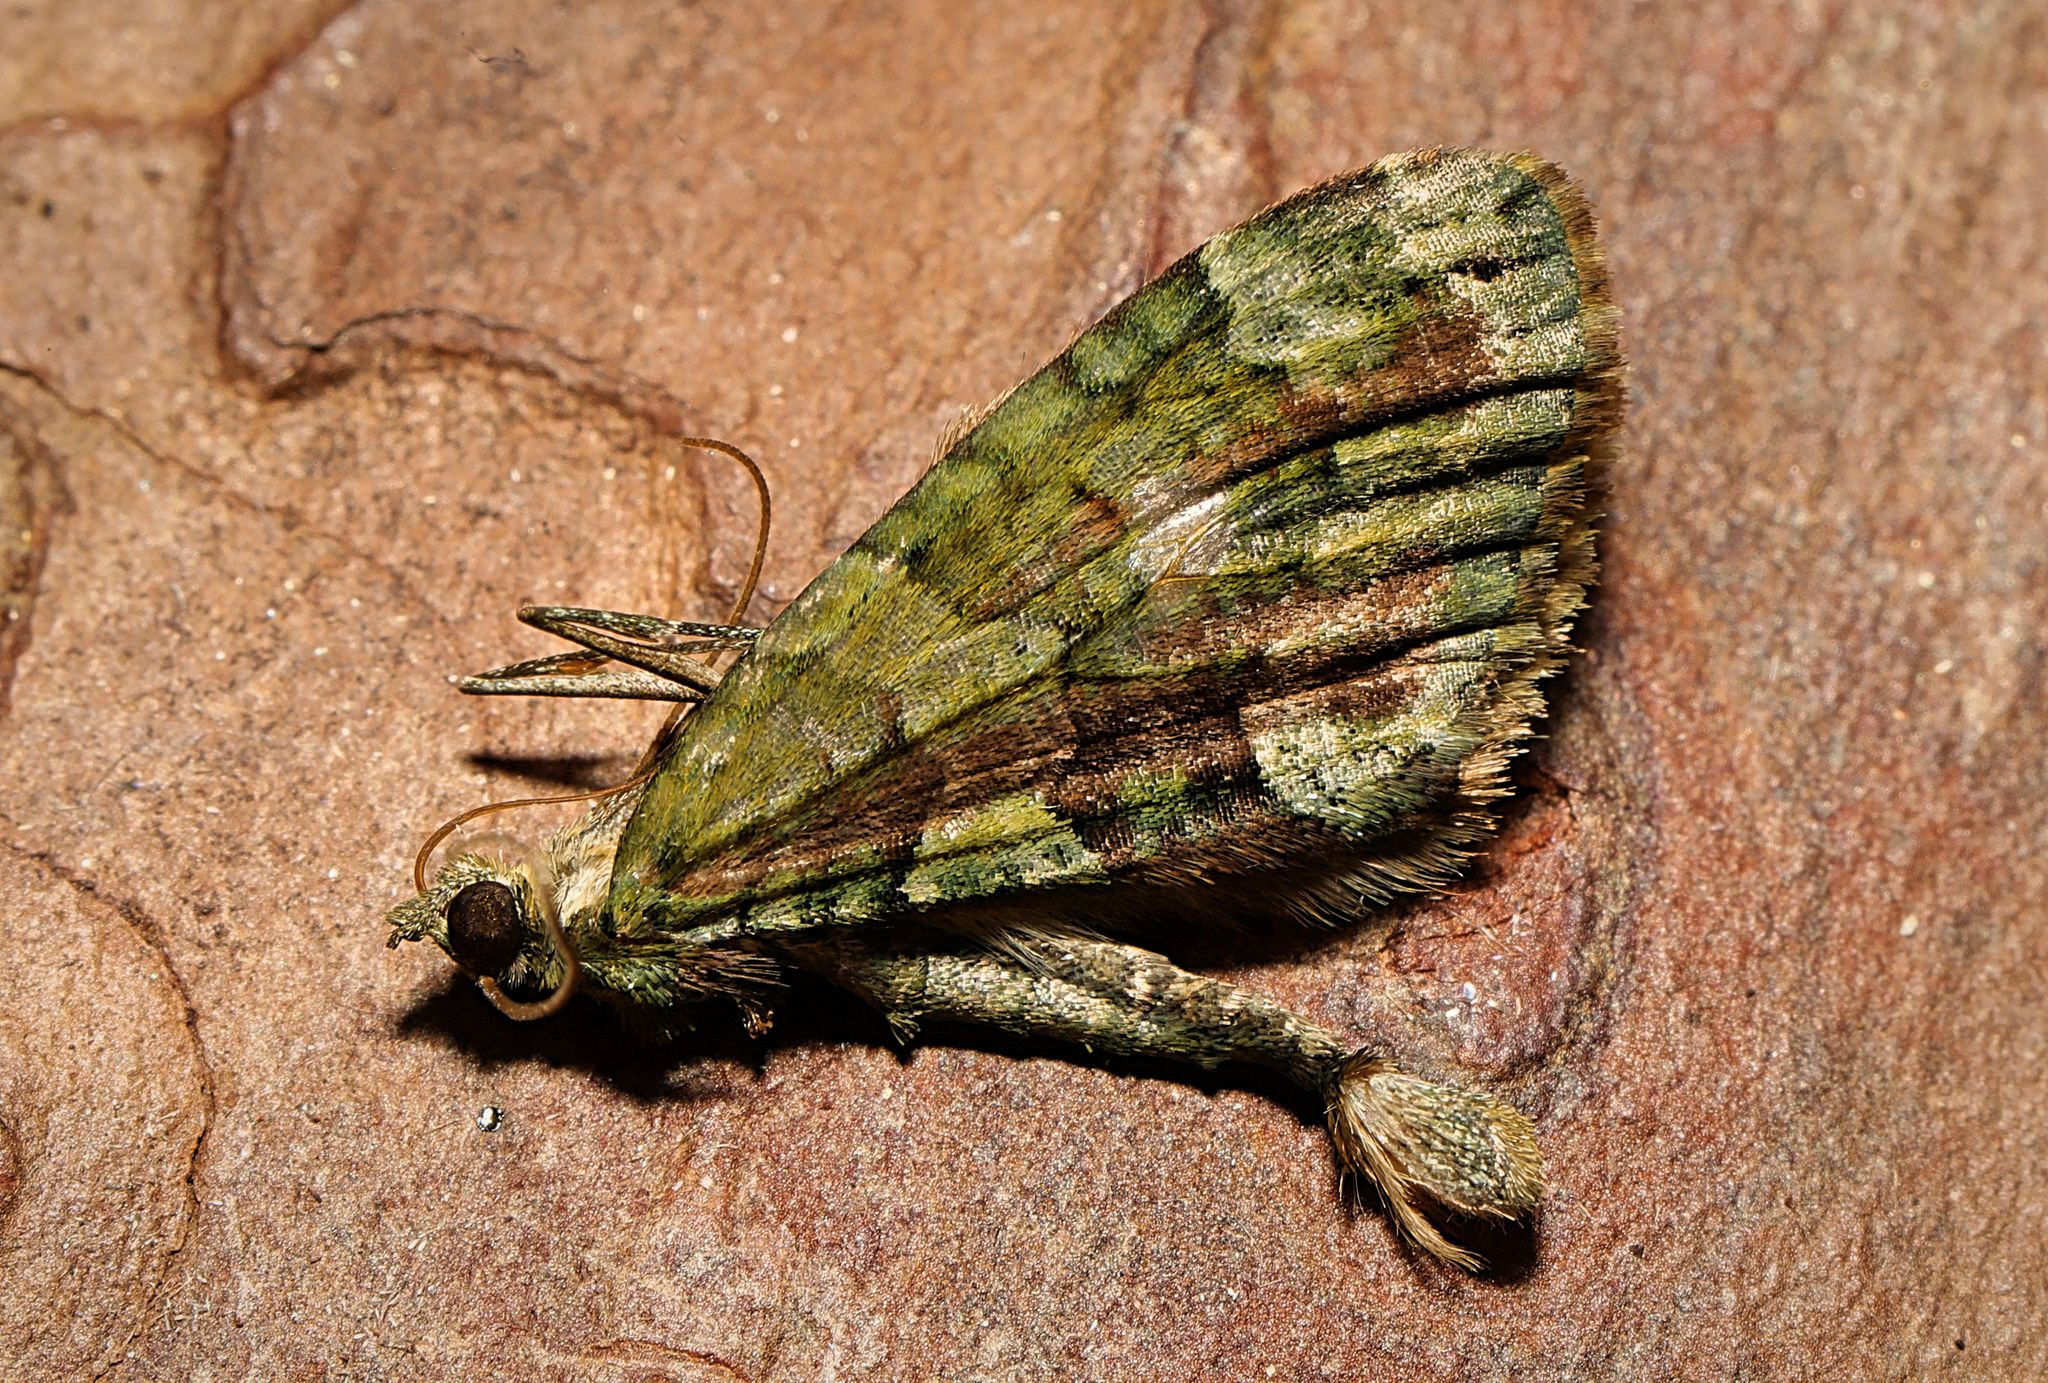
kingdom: Animalia
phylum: Arthropoda
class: Insecta
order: Lepidoptera
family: Geometridae
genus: Chloroclysta
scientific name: Chloroclysta siterata
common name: Red-green carpet
